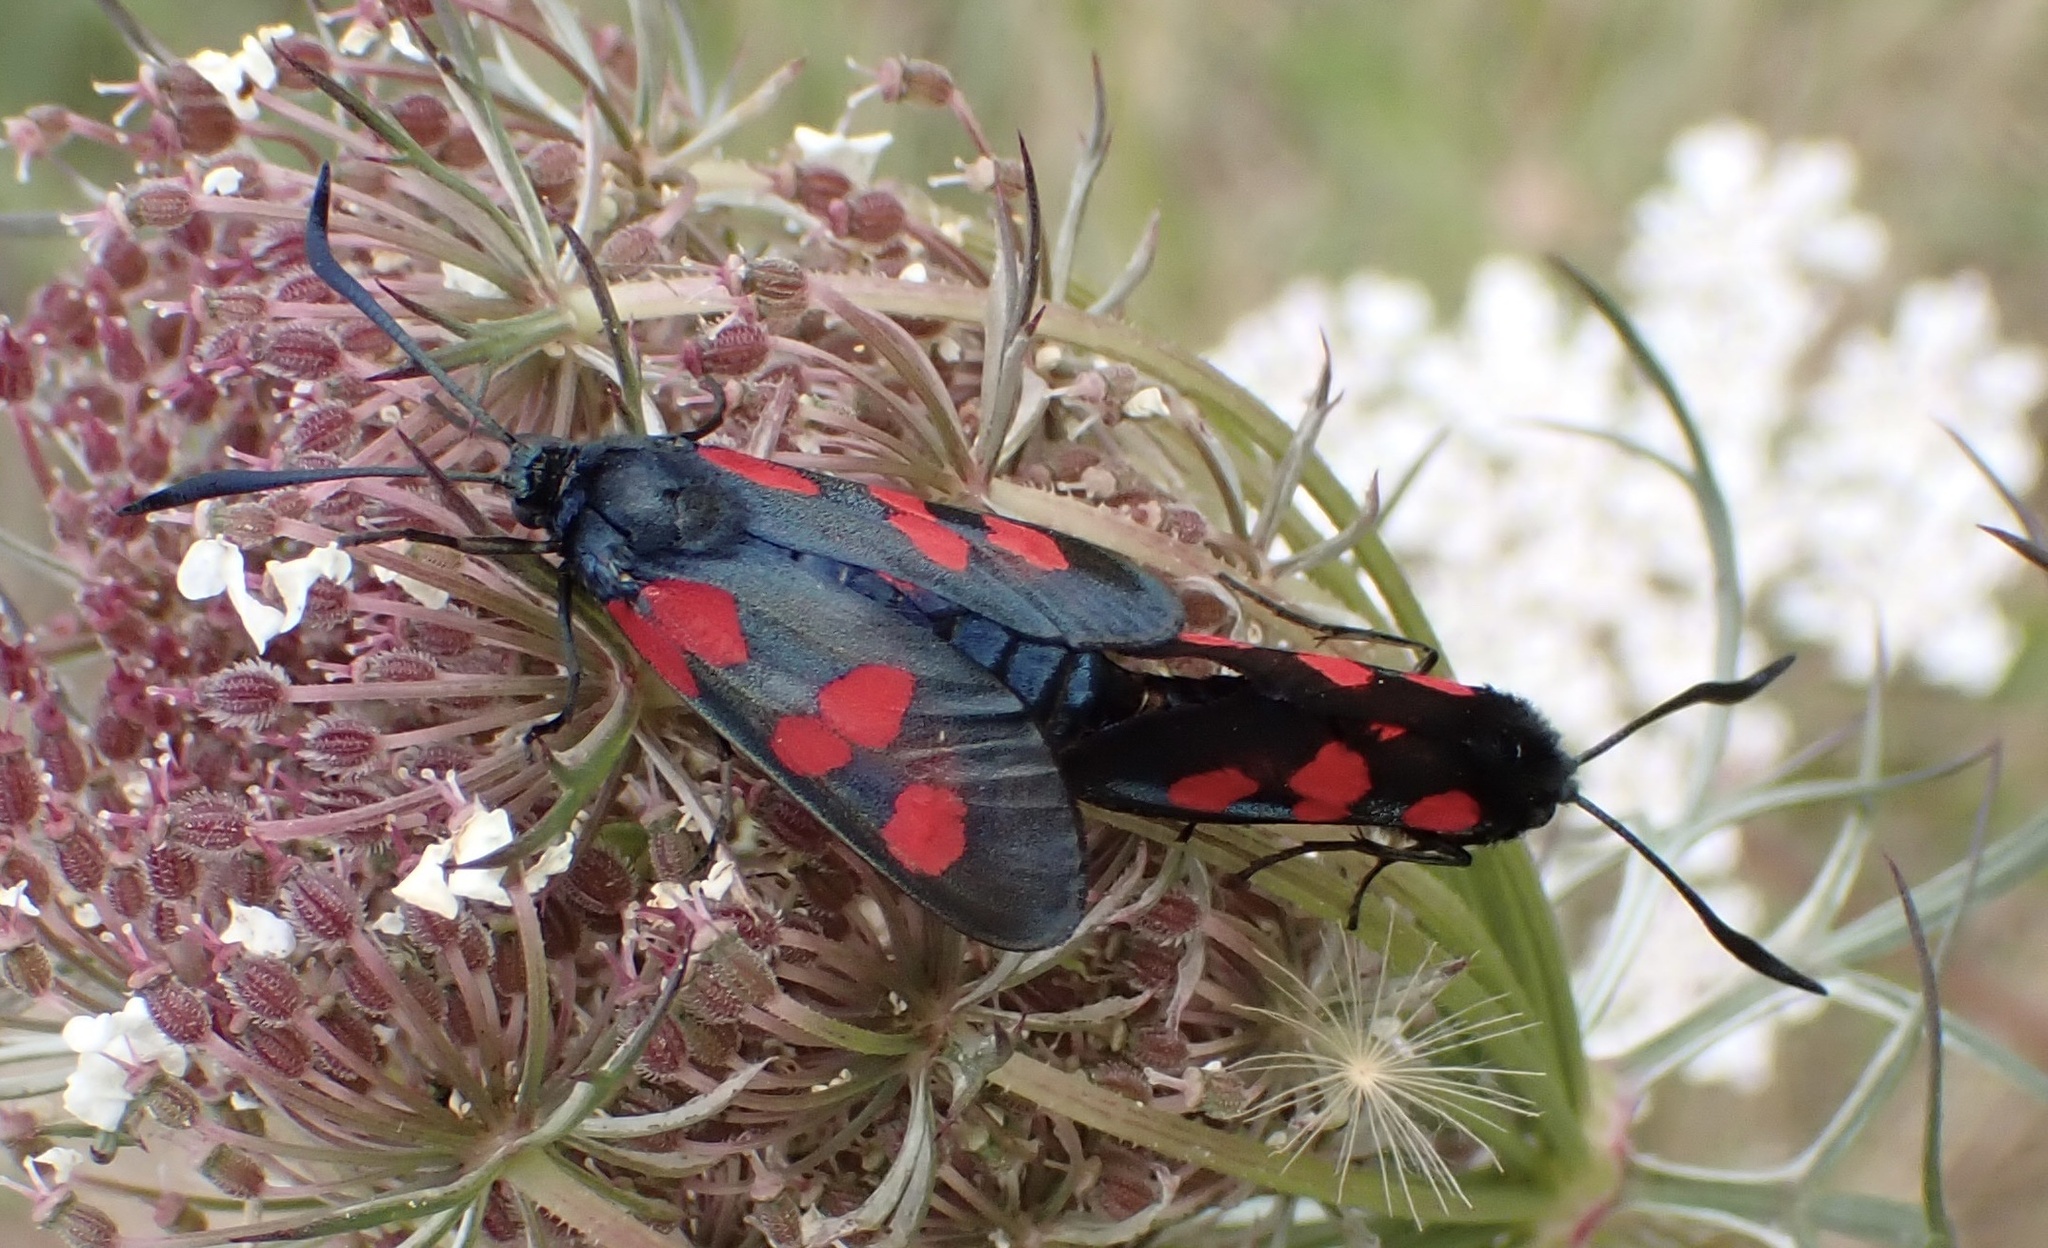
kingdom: Animalia
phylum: Arthropoda
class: Insecta
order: Lepidoptera
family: Zygaenidae
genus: Zygaena
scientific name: Zygaena trifolii
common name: Five-spot burnet
